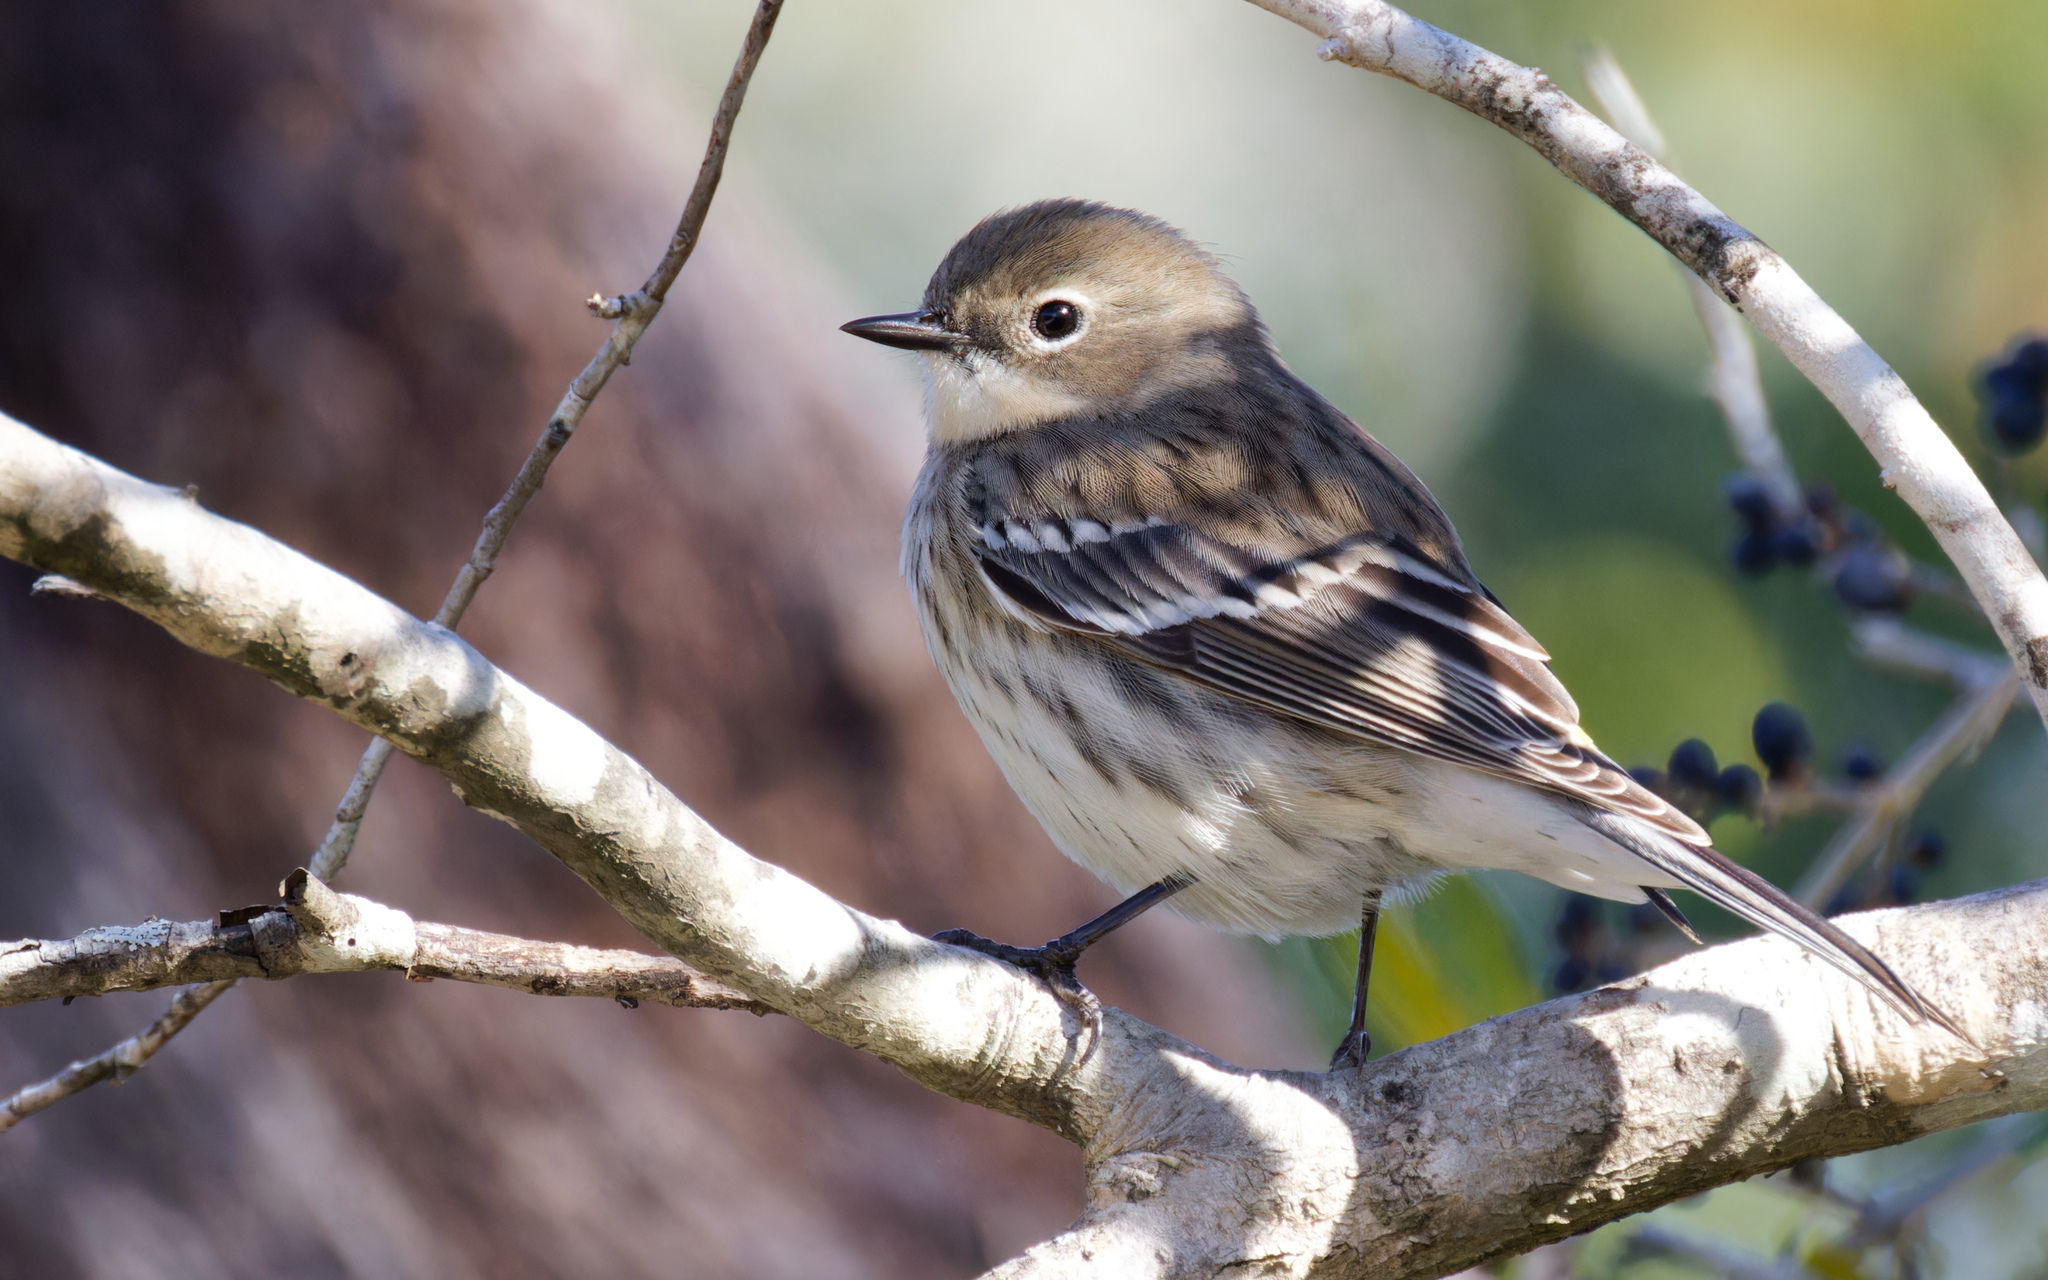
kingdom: Animalia
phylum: Chordata
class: Aves
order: Passeriformes
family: Parulidae
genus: Setophaga
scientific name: Setophaga coronata
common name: Myrtle warbler
